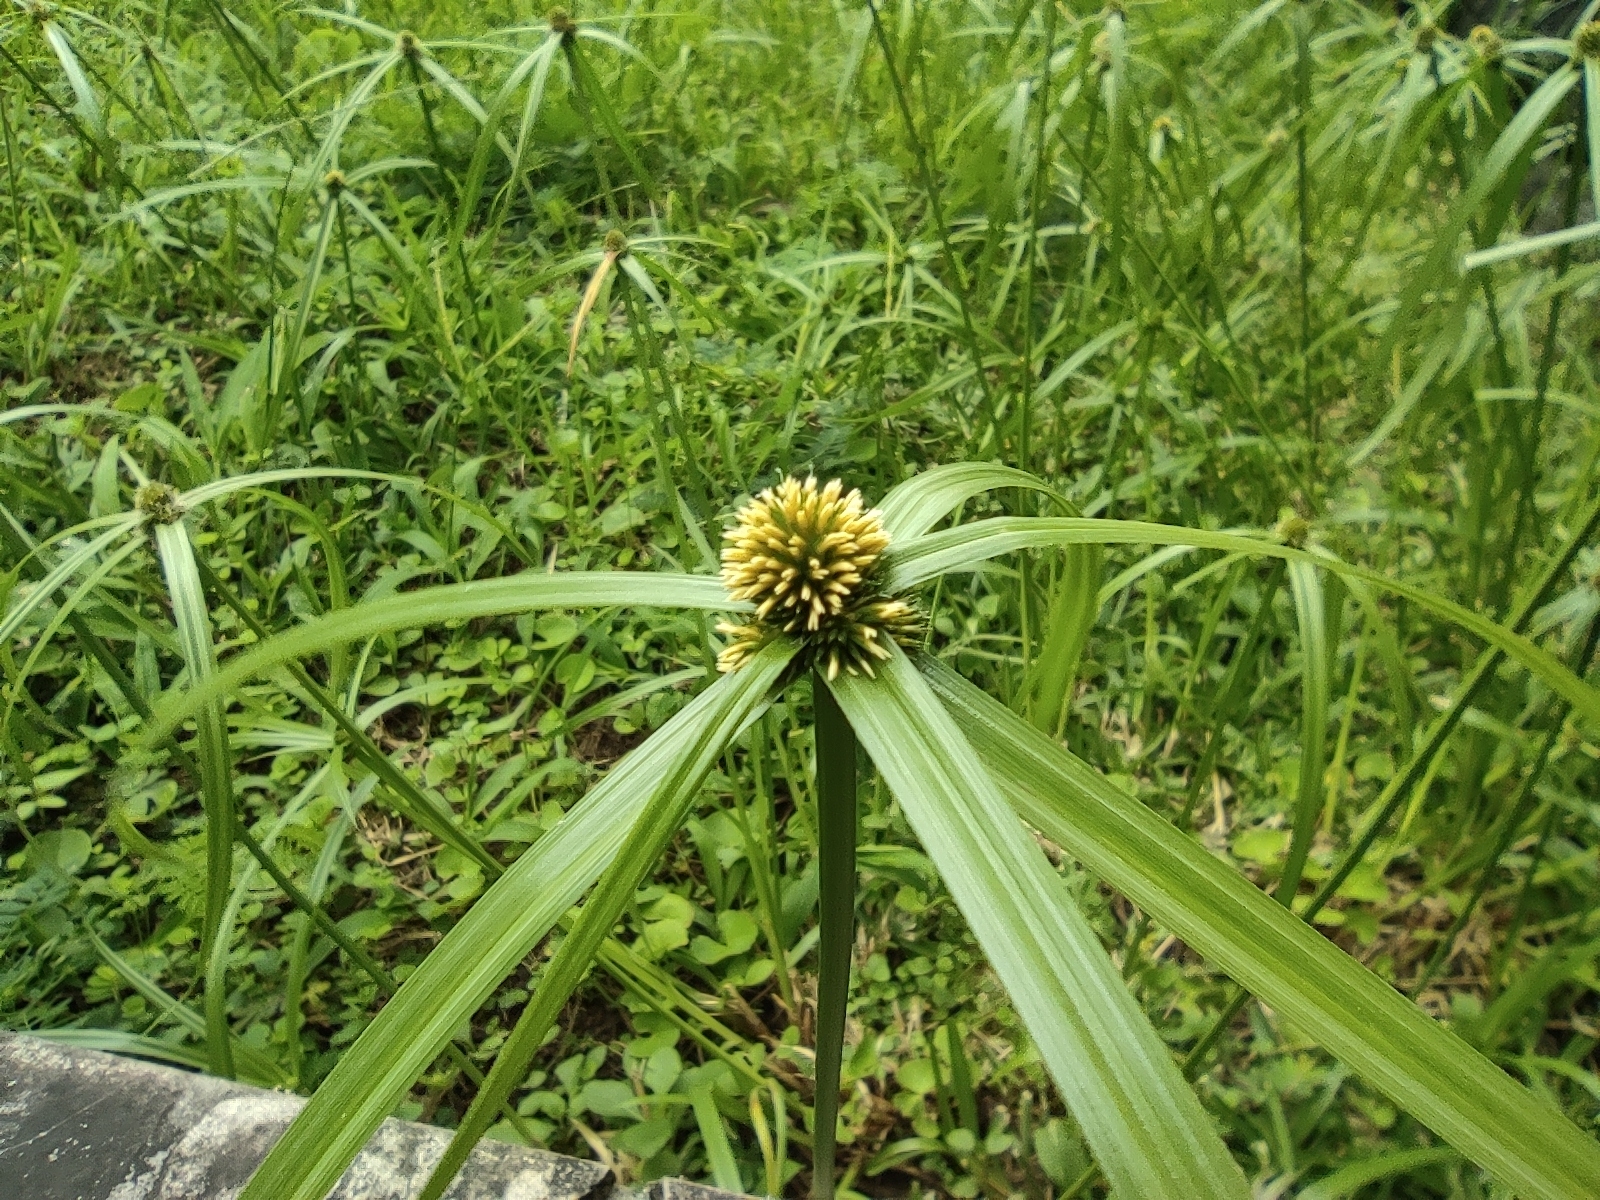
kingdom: Plantae
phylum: Tracheophyta
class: Liliopsida
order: Poales
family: Cyperaceae
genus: Cyperus
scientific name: Cyperus aromaticus
